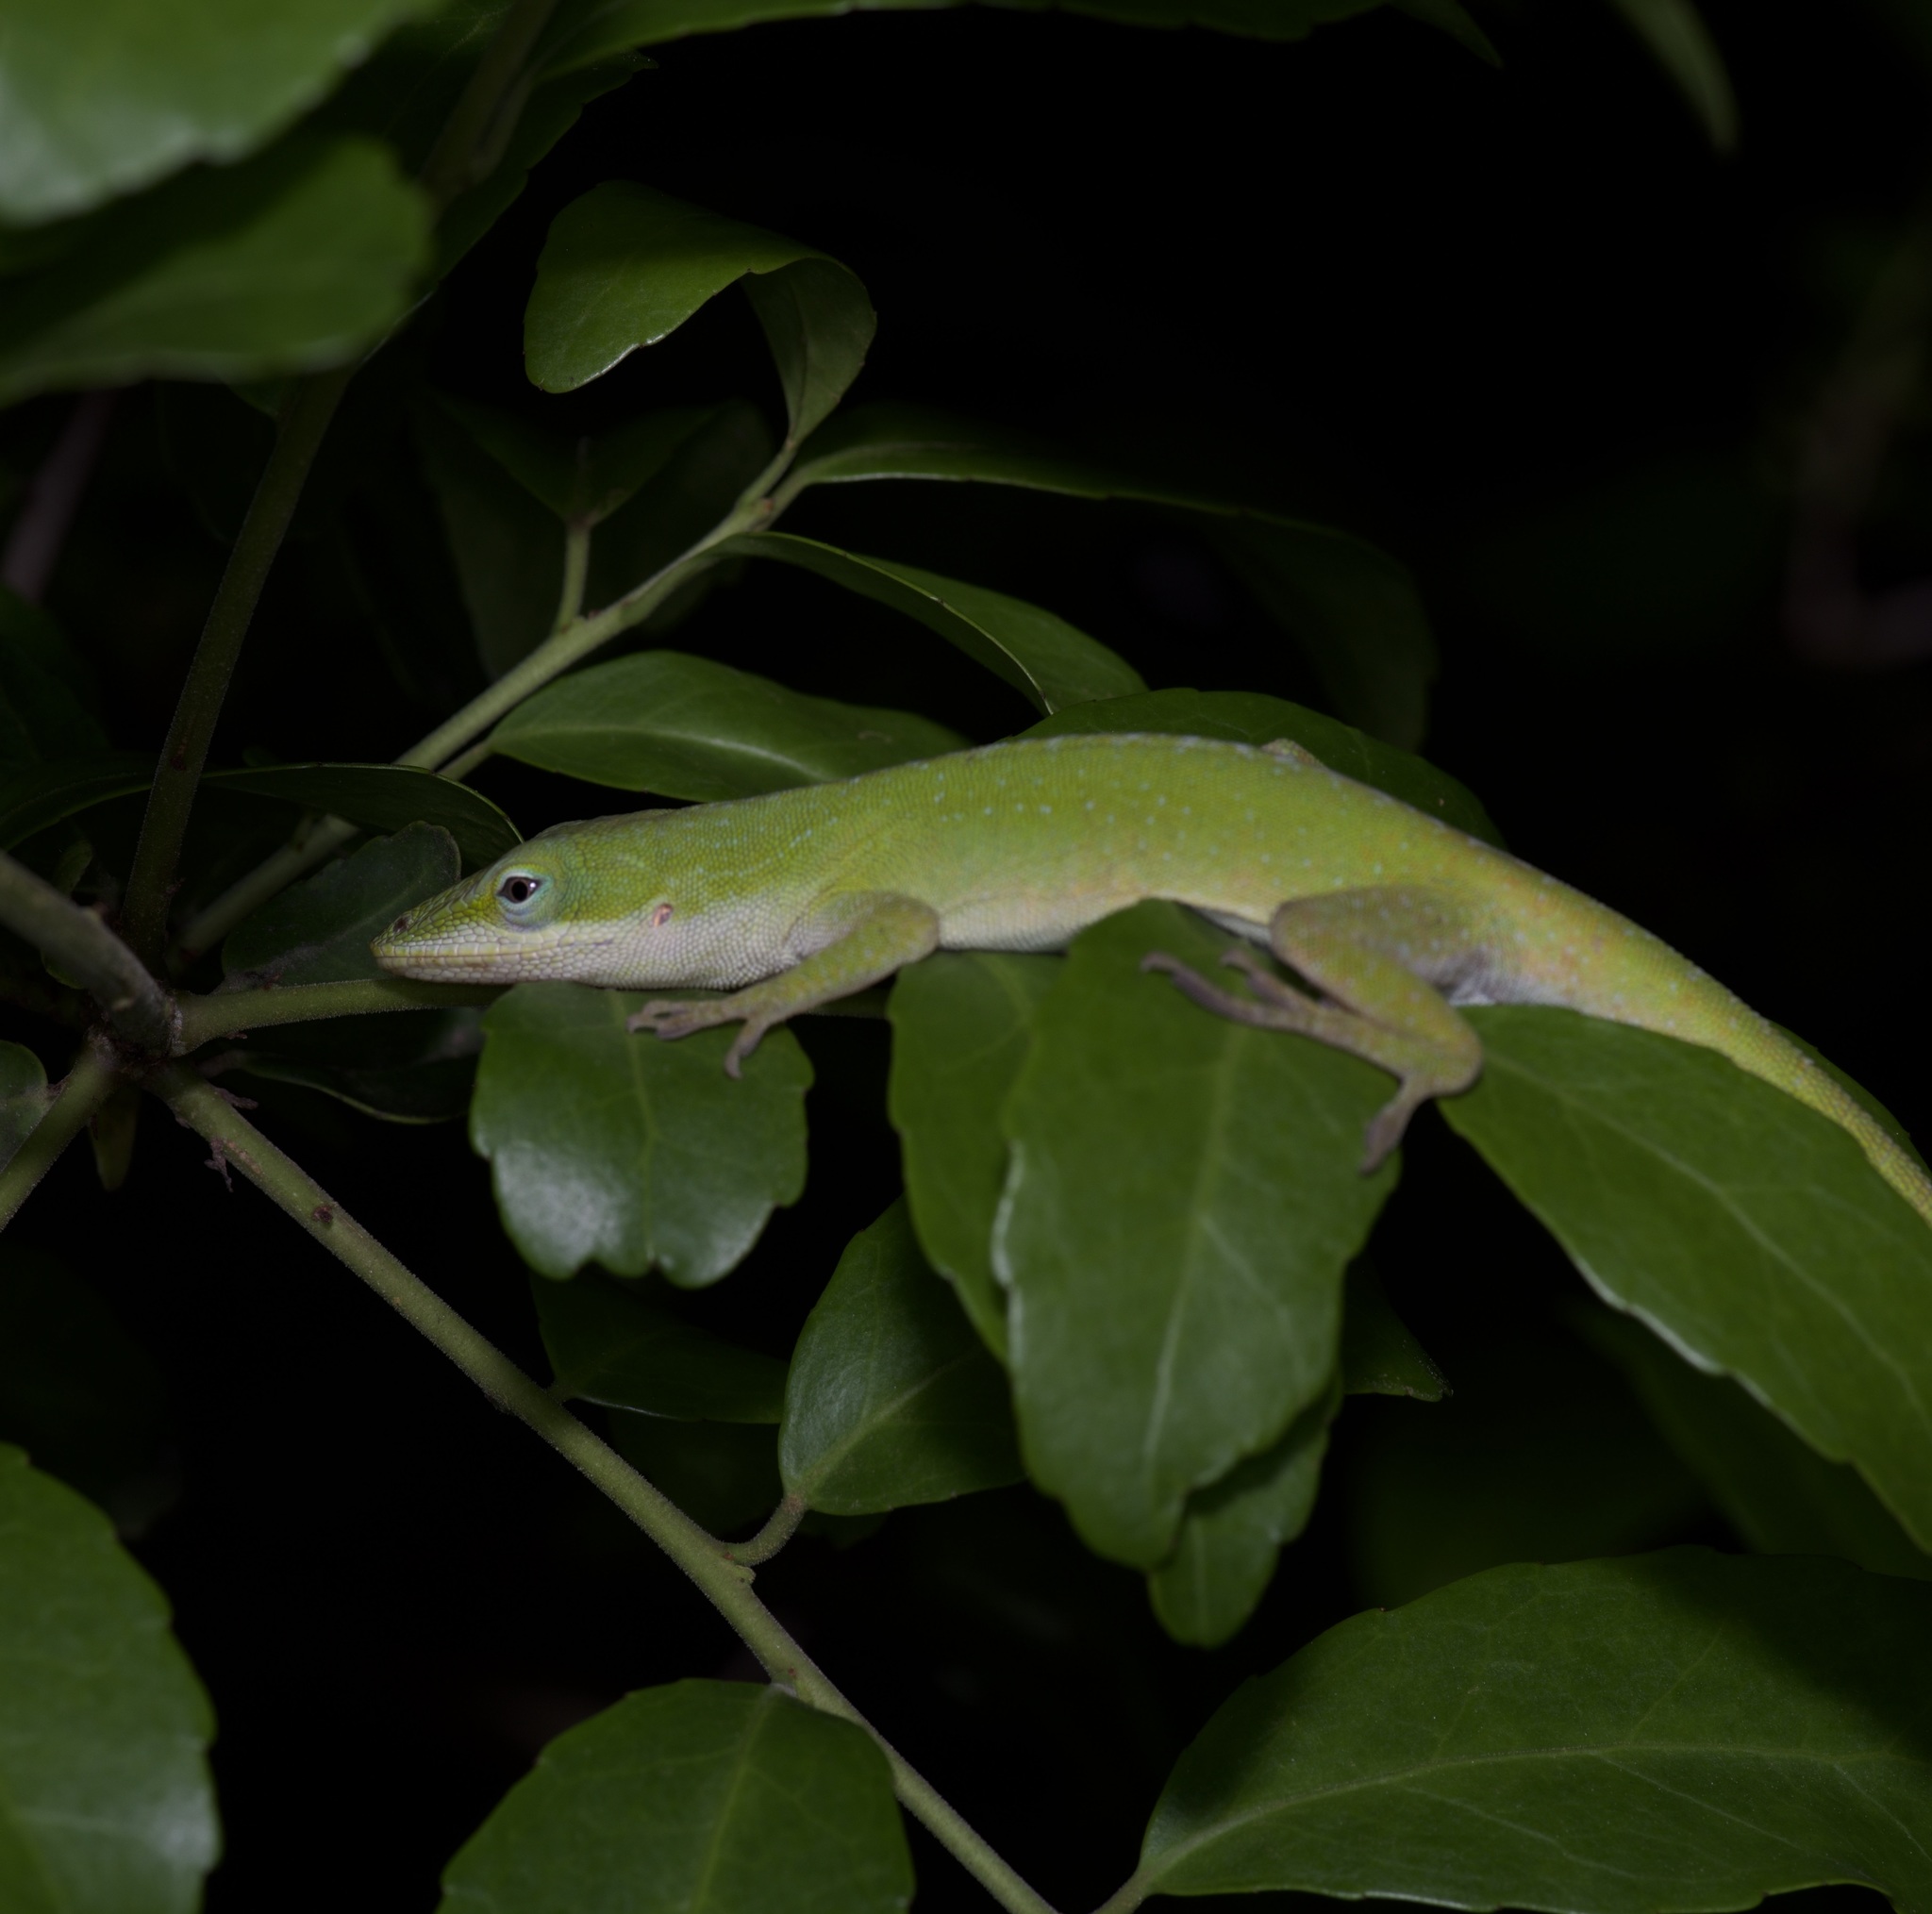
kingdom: Animalia
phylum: Chordata
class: Squamata
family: Dactyloidae
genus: Anolis
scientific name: Anolis carolinensis
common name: Green anole
